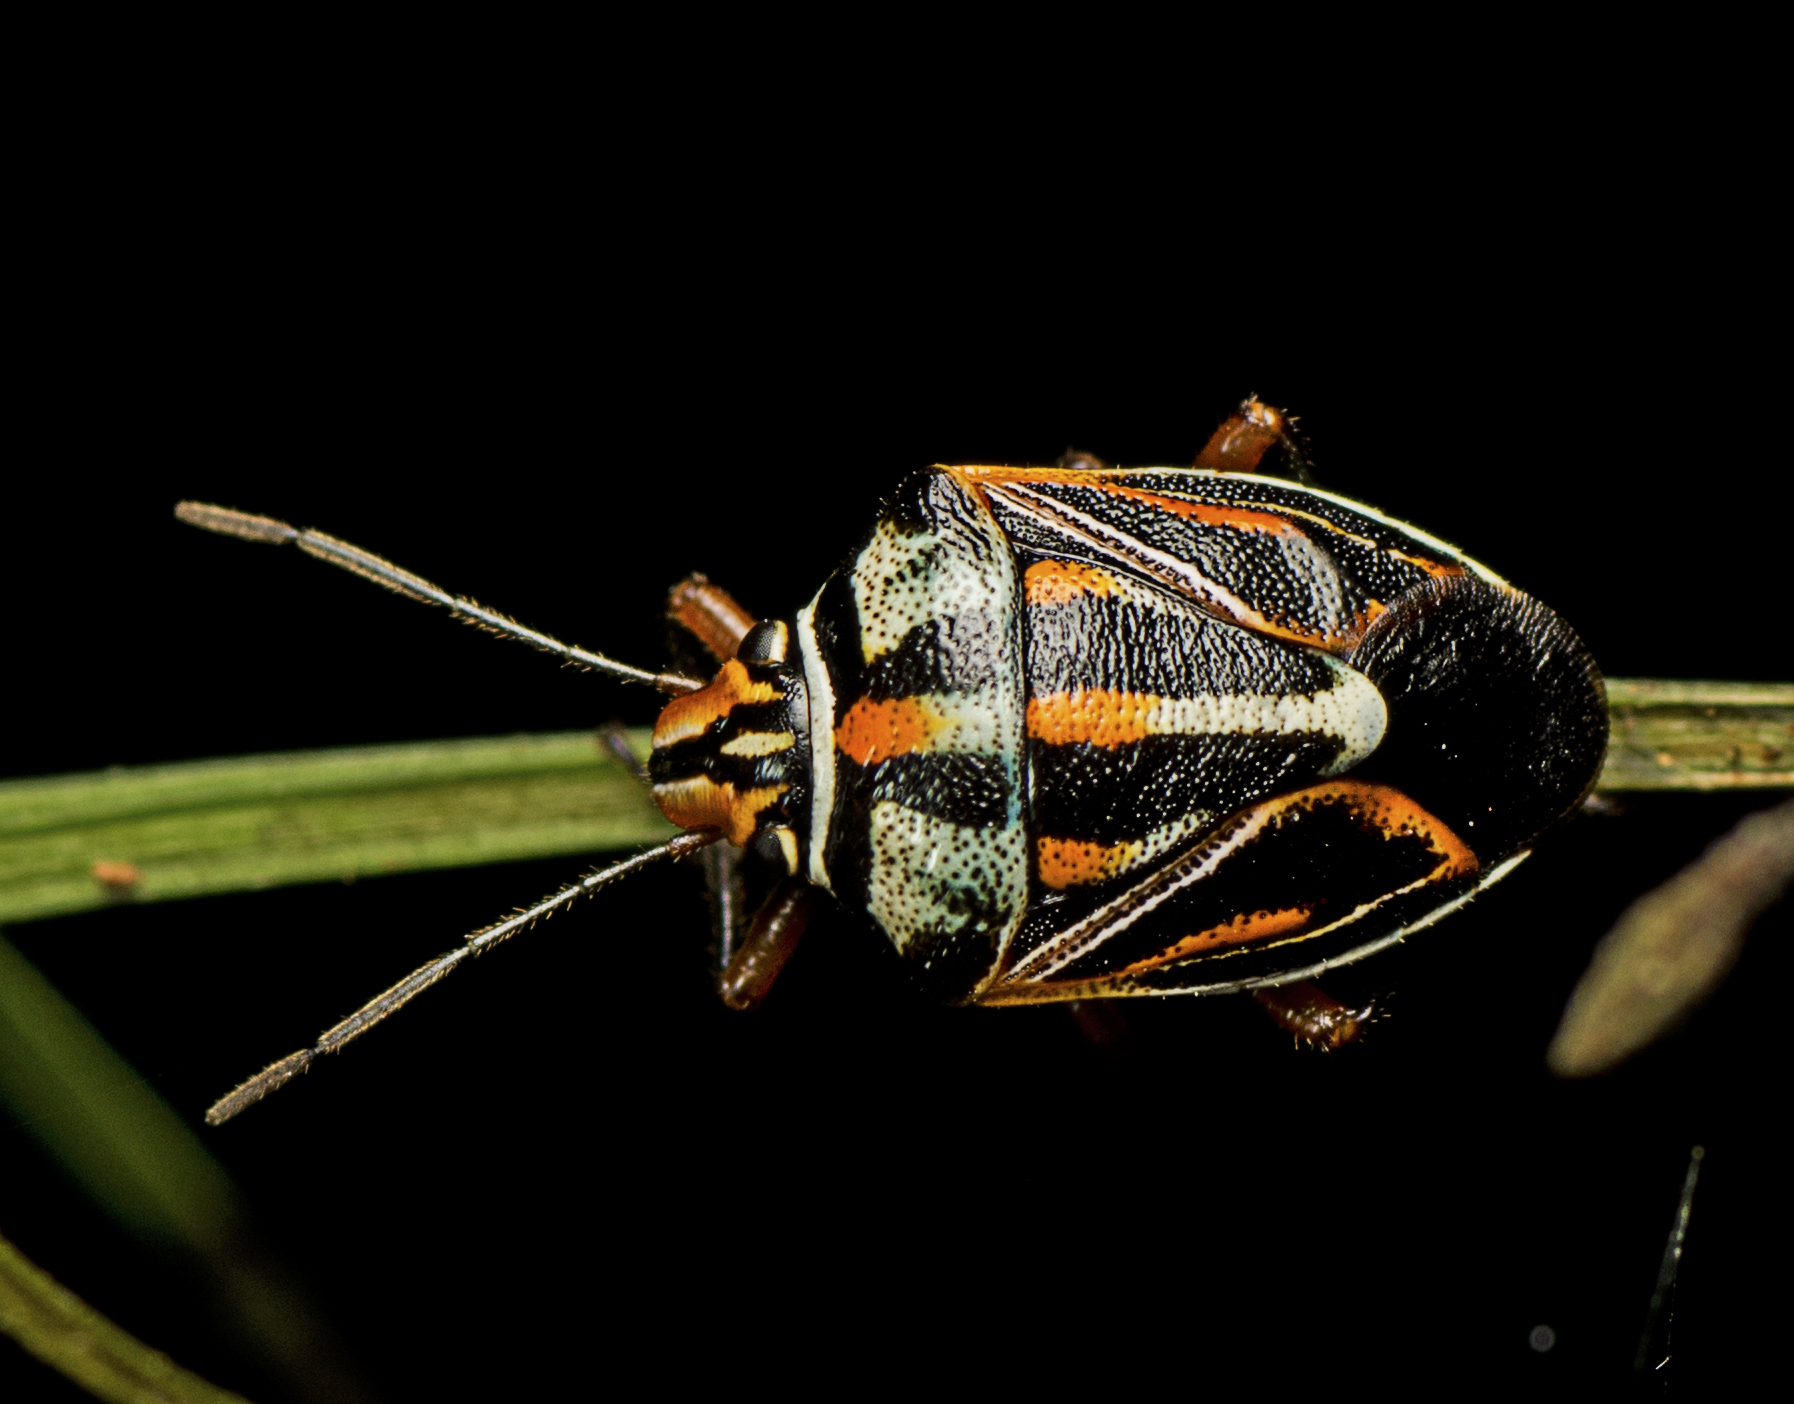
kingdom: Animalia
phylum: Arthropoda
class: Insecta
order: Hemiptera
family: Pentatomidae
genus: Novatilla
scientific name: Novatilla
